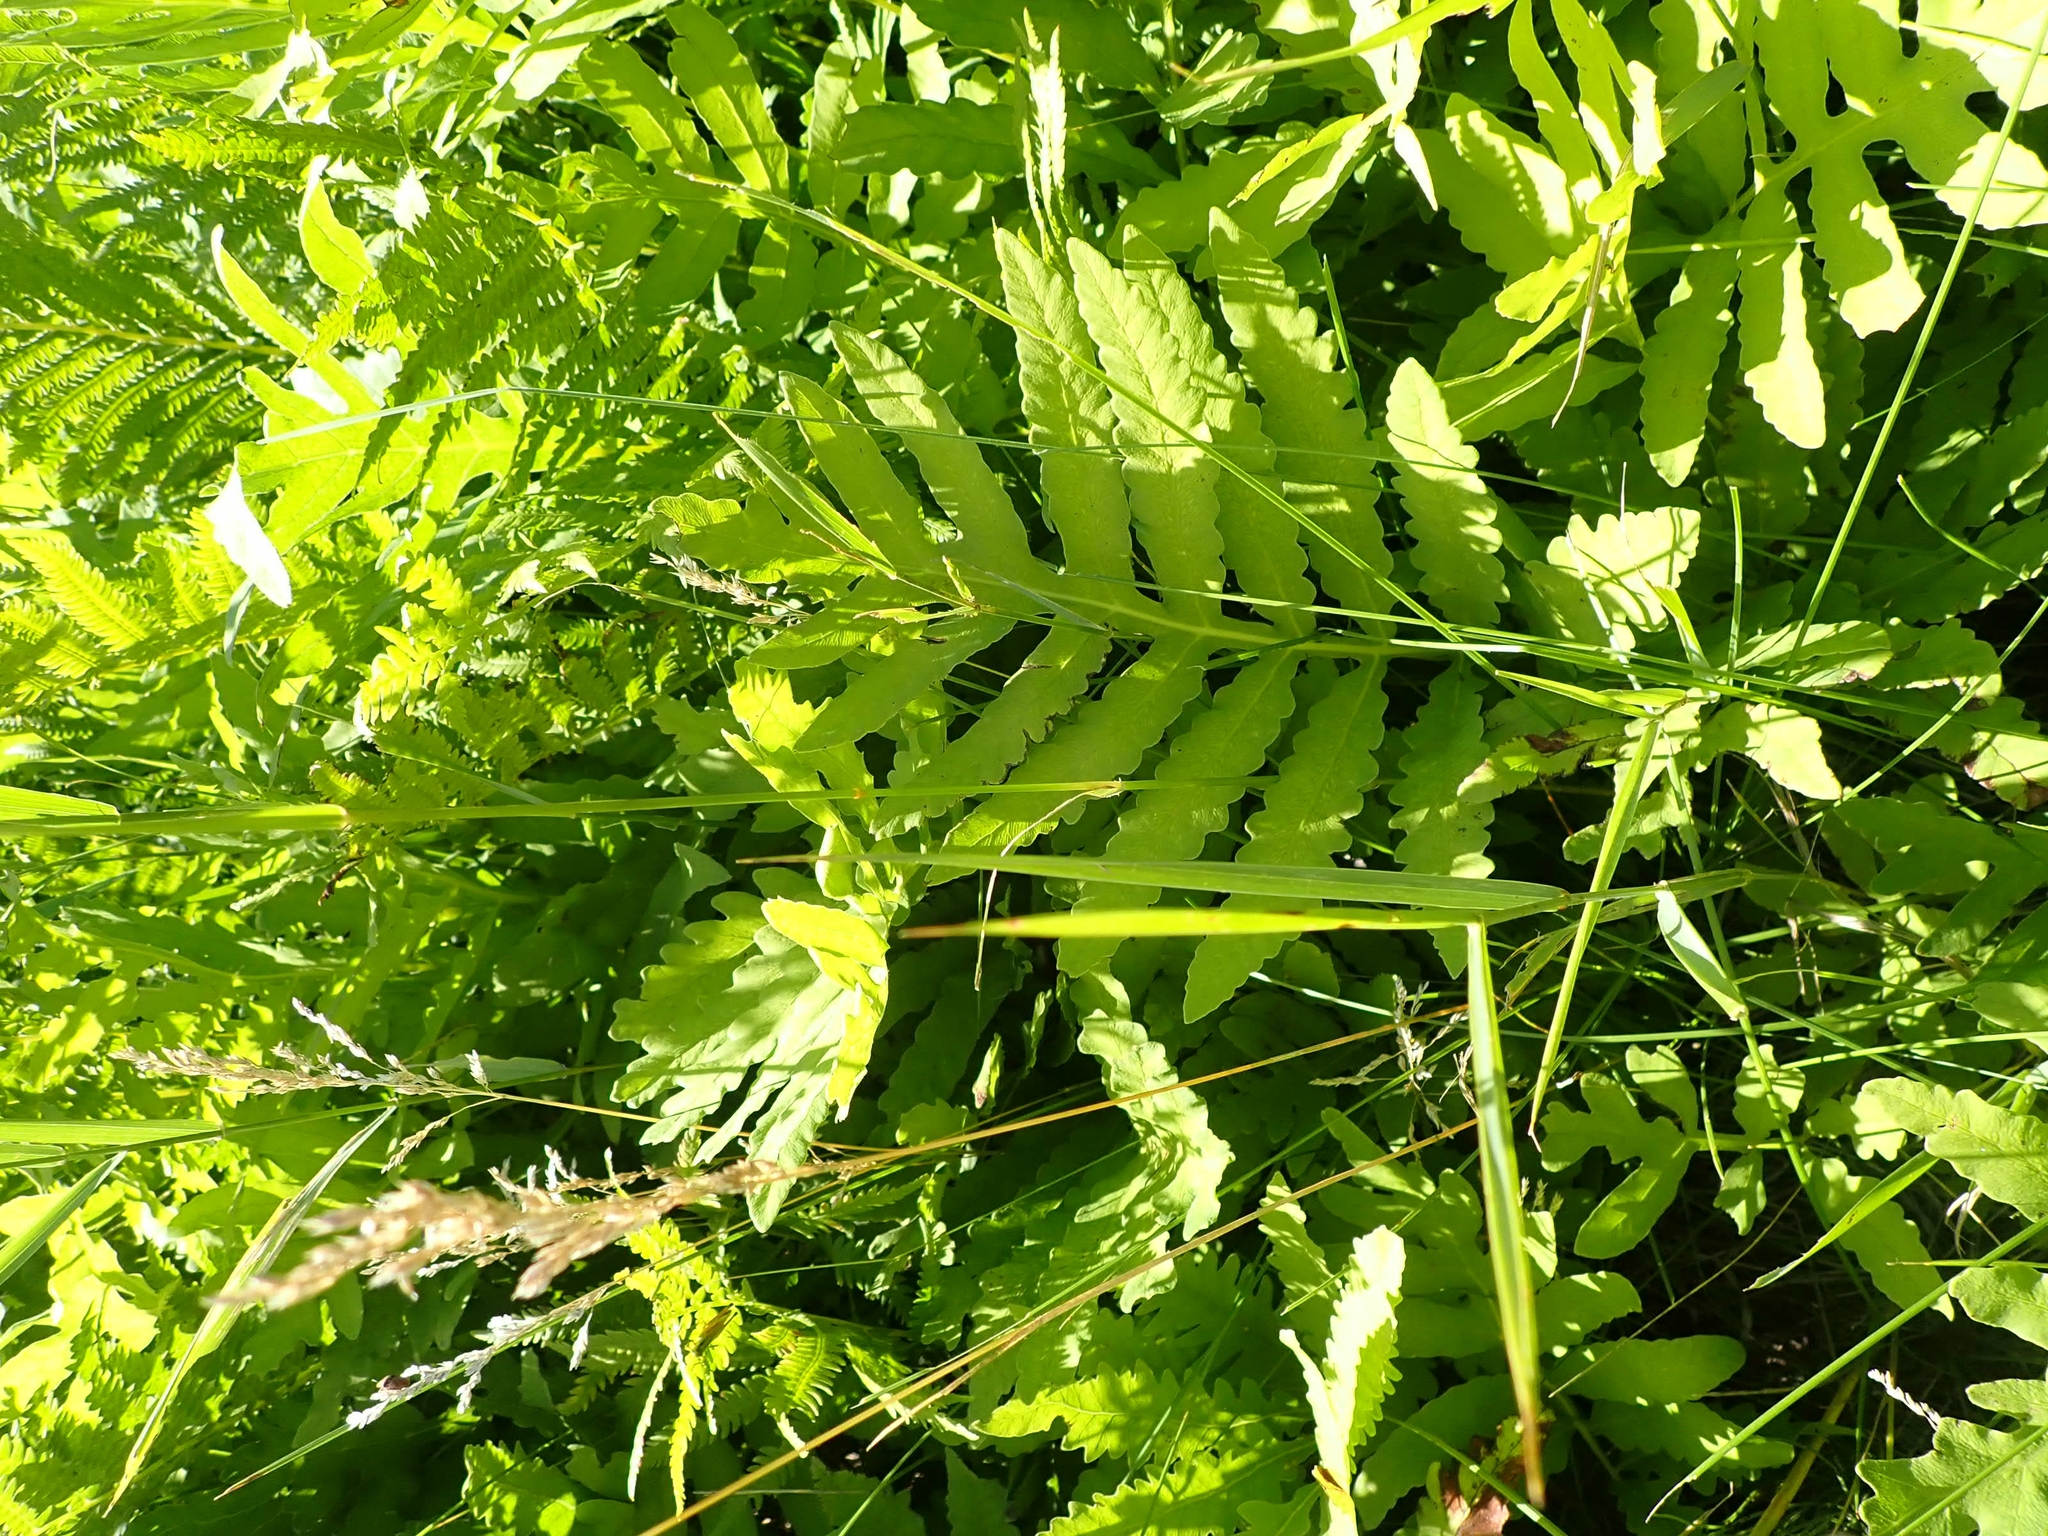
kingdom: Plantae
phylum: Tracheophyta
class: Polypodiopsida
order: Polypodiales
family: Onocleaceae
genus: Onoclea
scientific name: Onoclea sensibilis
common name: Sensitive fern
